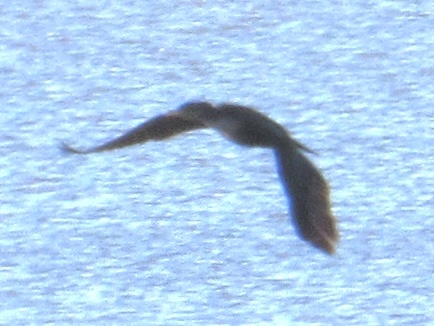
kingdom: Animalia
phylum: Chordata
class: Aves
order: Suliformes
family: Phalacrocoracidae
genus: Phalacrocorax
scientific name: Phalacrocorax auritus
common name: Double-crested cormorant
